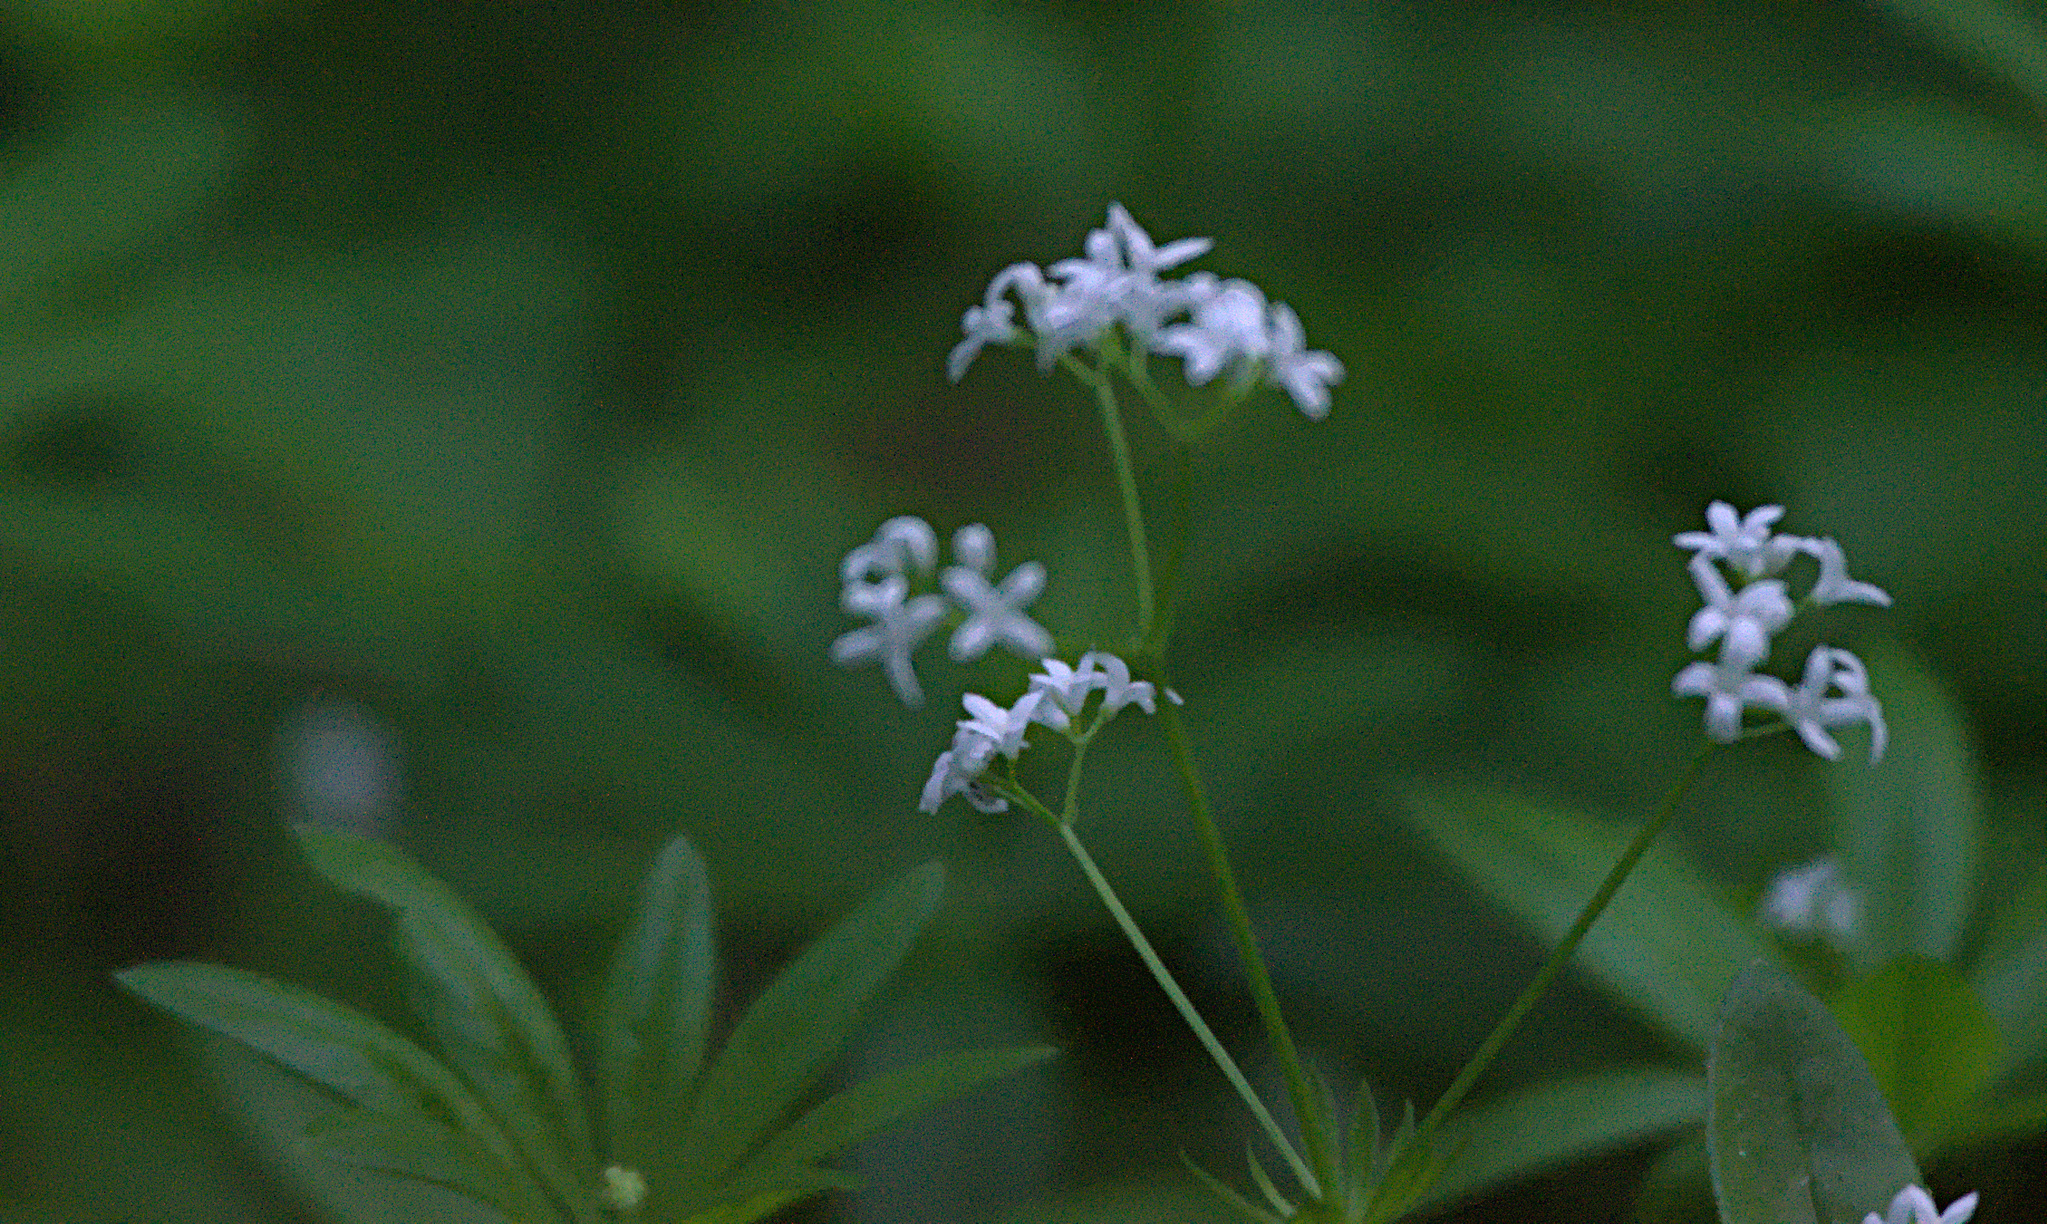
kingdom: Plantae
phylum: Tracheophyta
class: Magnoliopsida
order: Gentianales
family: Rubiaceae
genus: Galium
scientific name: Galium odoratum
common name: Sweet woodruff
